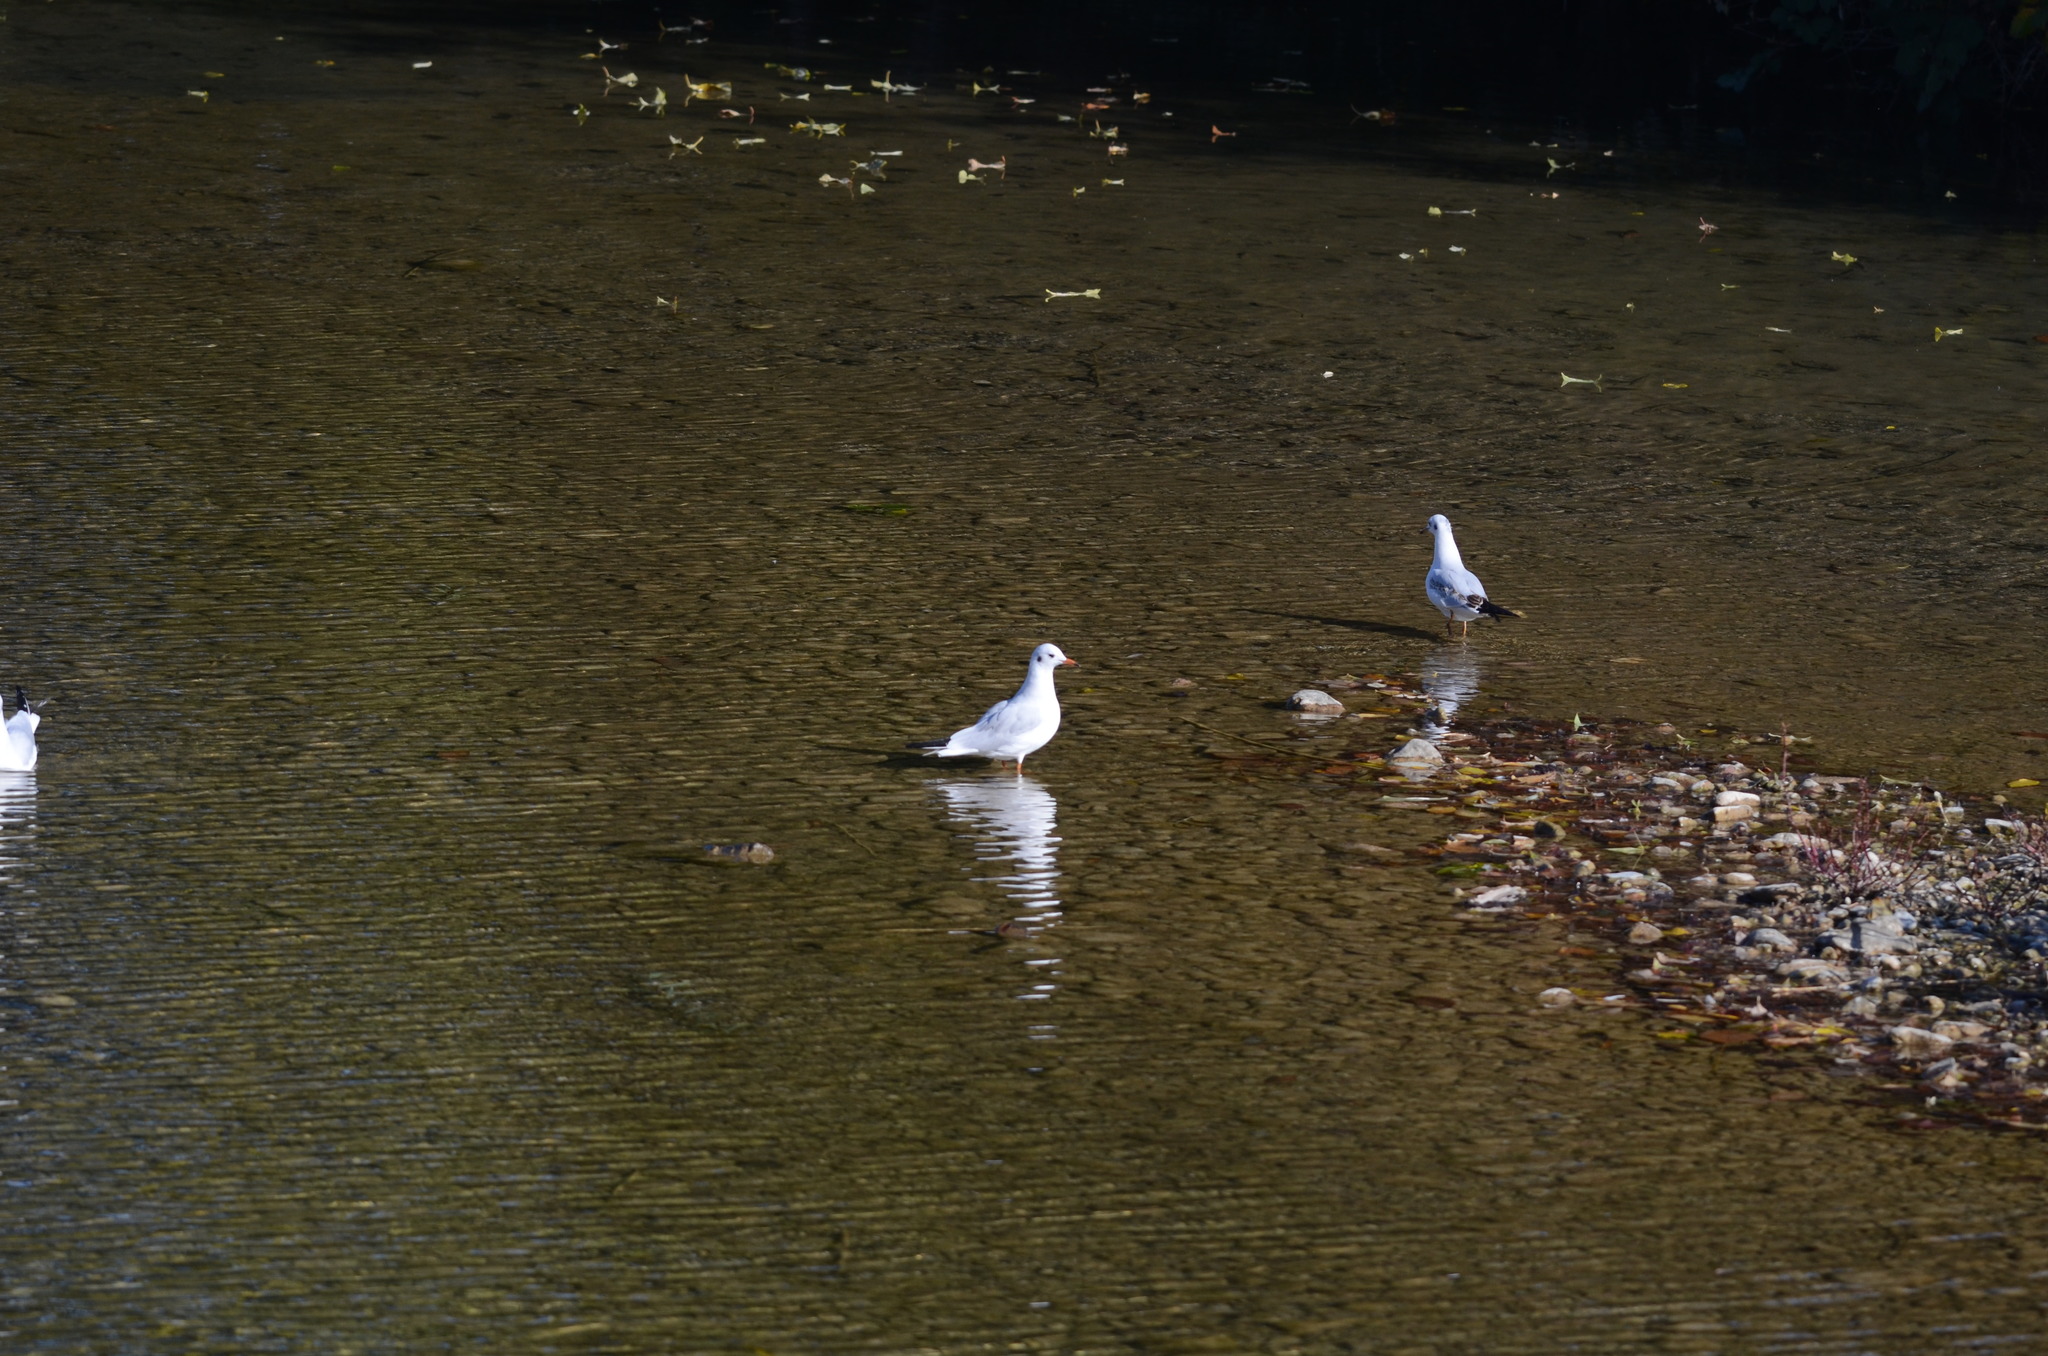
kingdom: Animalia
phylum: Chordata
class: Aves
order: Charadriiformes
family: Laridae
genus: Chroicocephalus
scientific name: Chroicocephalus ridibundus
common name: Black-headed gull
